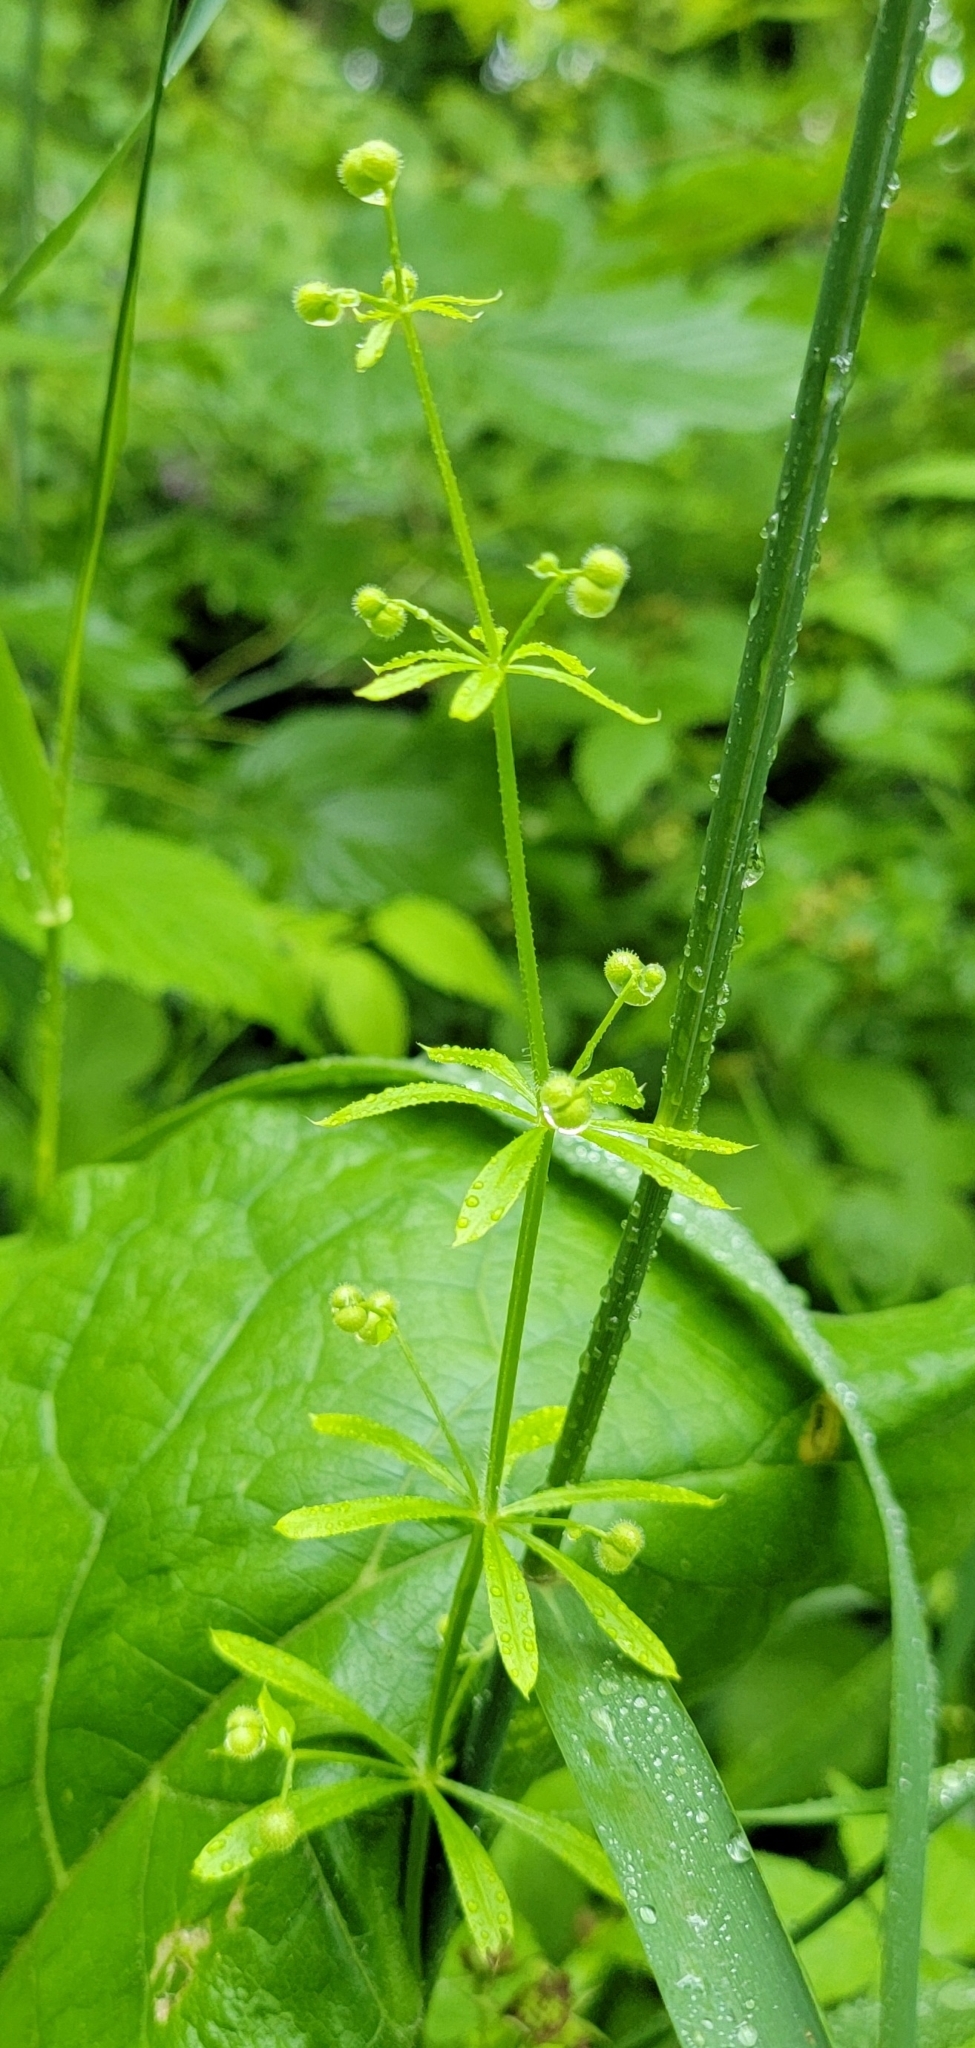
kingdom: Plantae
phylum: Tracheophyta
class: Magnoliopsida
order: Gentianales
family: Rubiaceae
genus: Galium
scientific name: Galium aparine
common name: Cleavers
